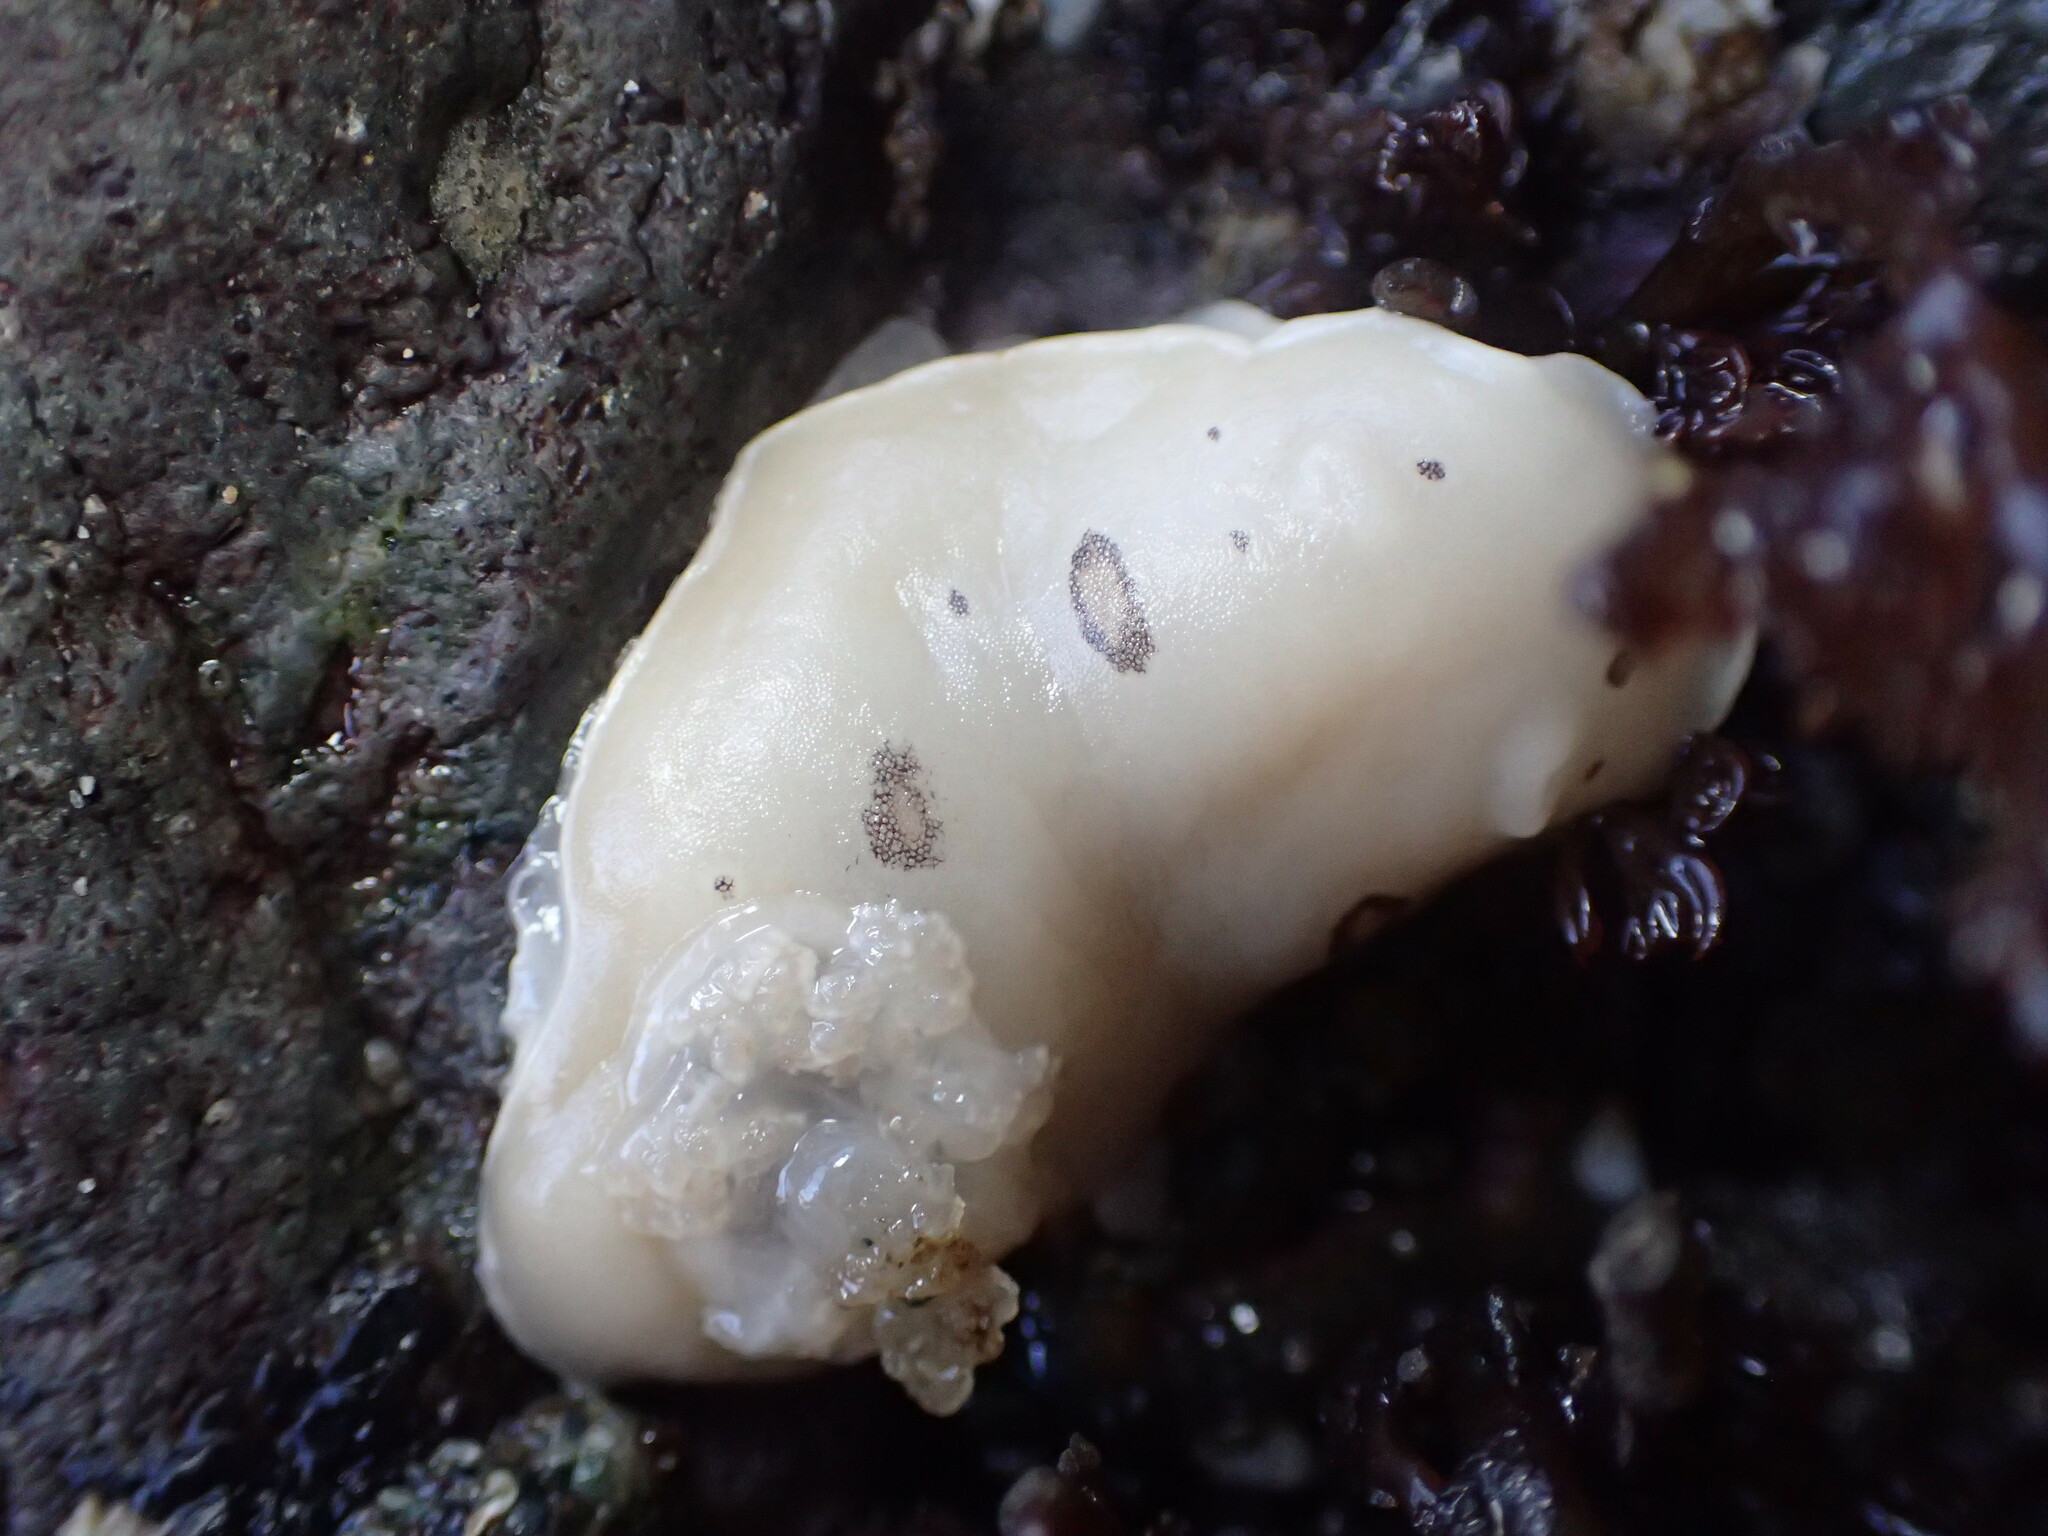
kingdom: Animalia
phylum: Mollusca
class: Gastropoda
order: Nudibranchia
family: Discodorididae
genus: Diaulula
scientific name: Diaulula sandiegensis
